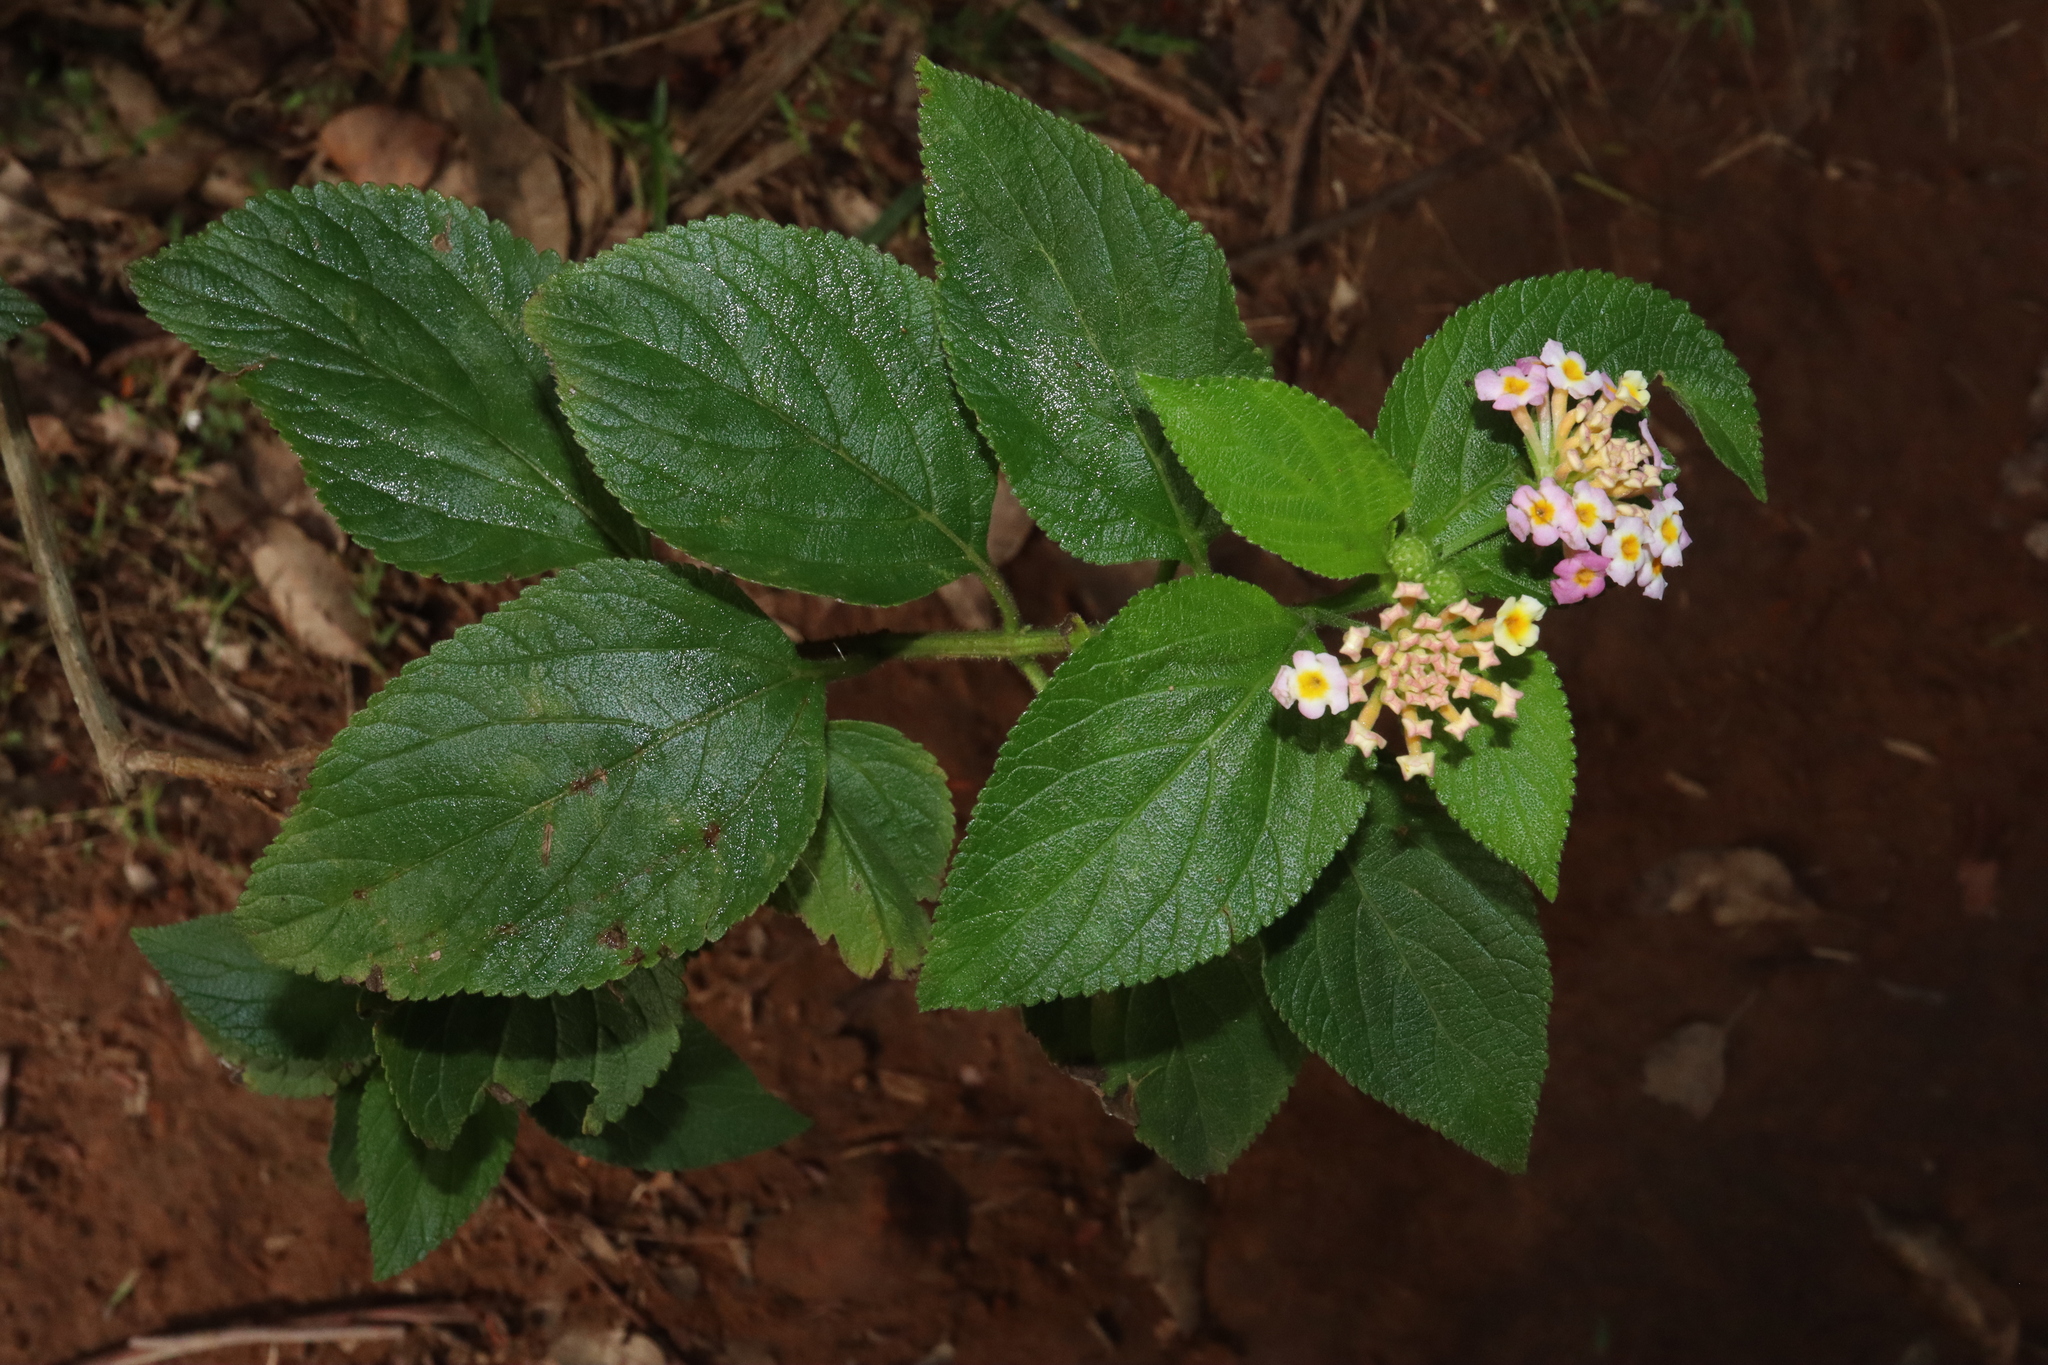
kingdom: Plantae
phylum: Tracheophyta
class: Magnoliopsida
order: Lamiales
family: Verbenaceae
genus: Lantana
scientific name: Lantana camara
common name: Lantana
